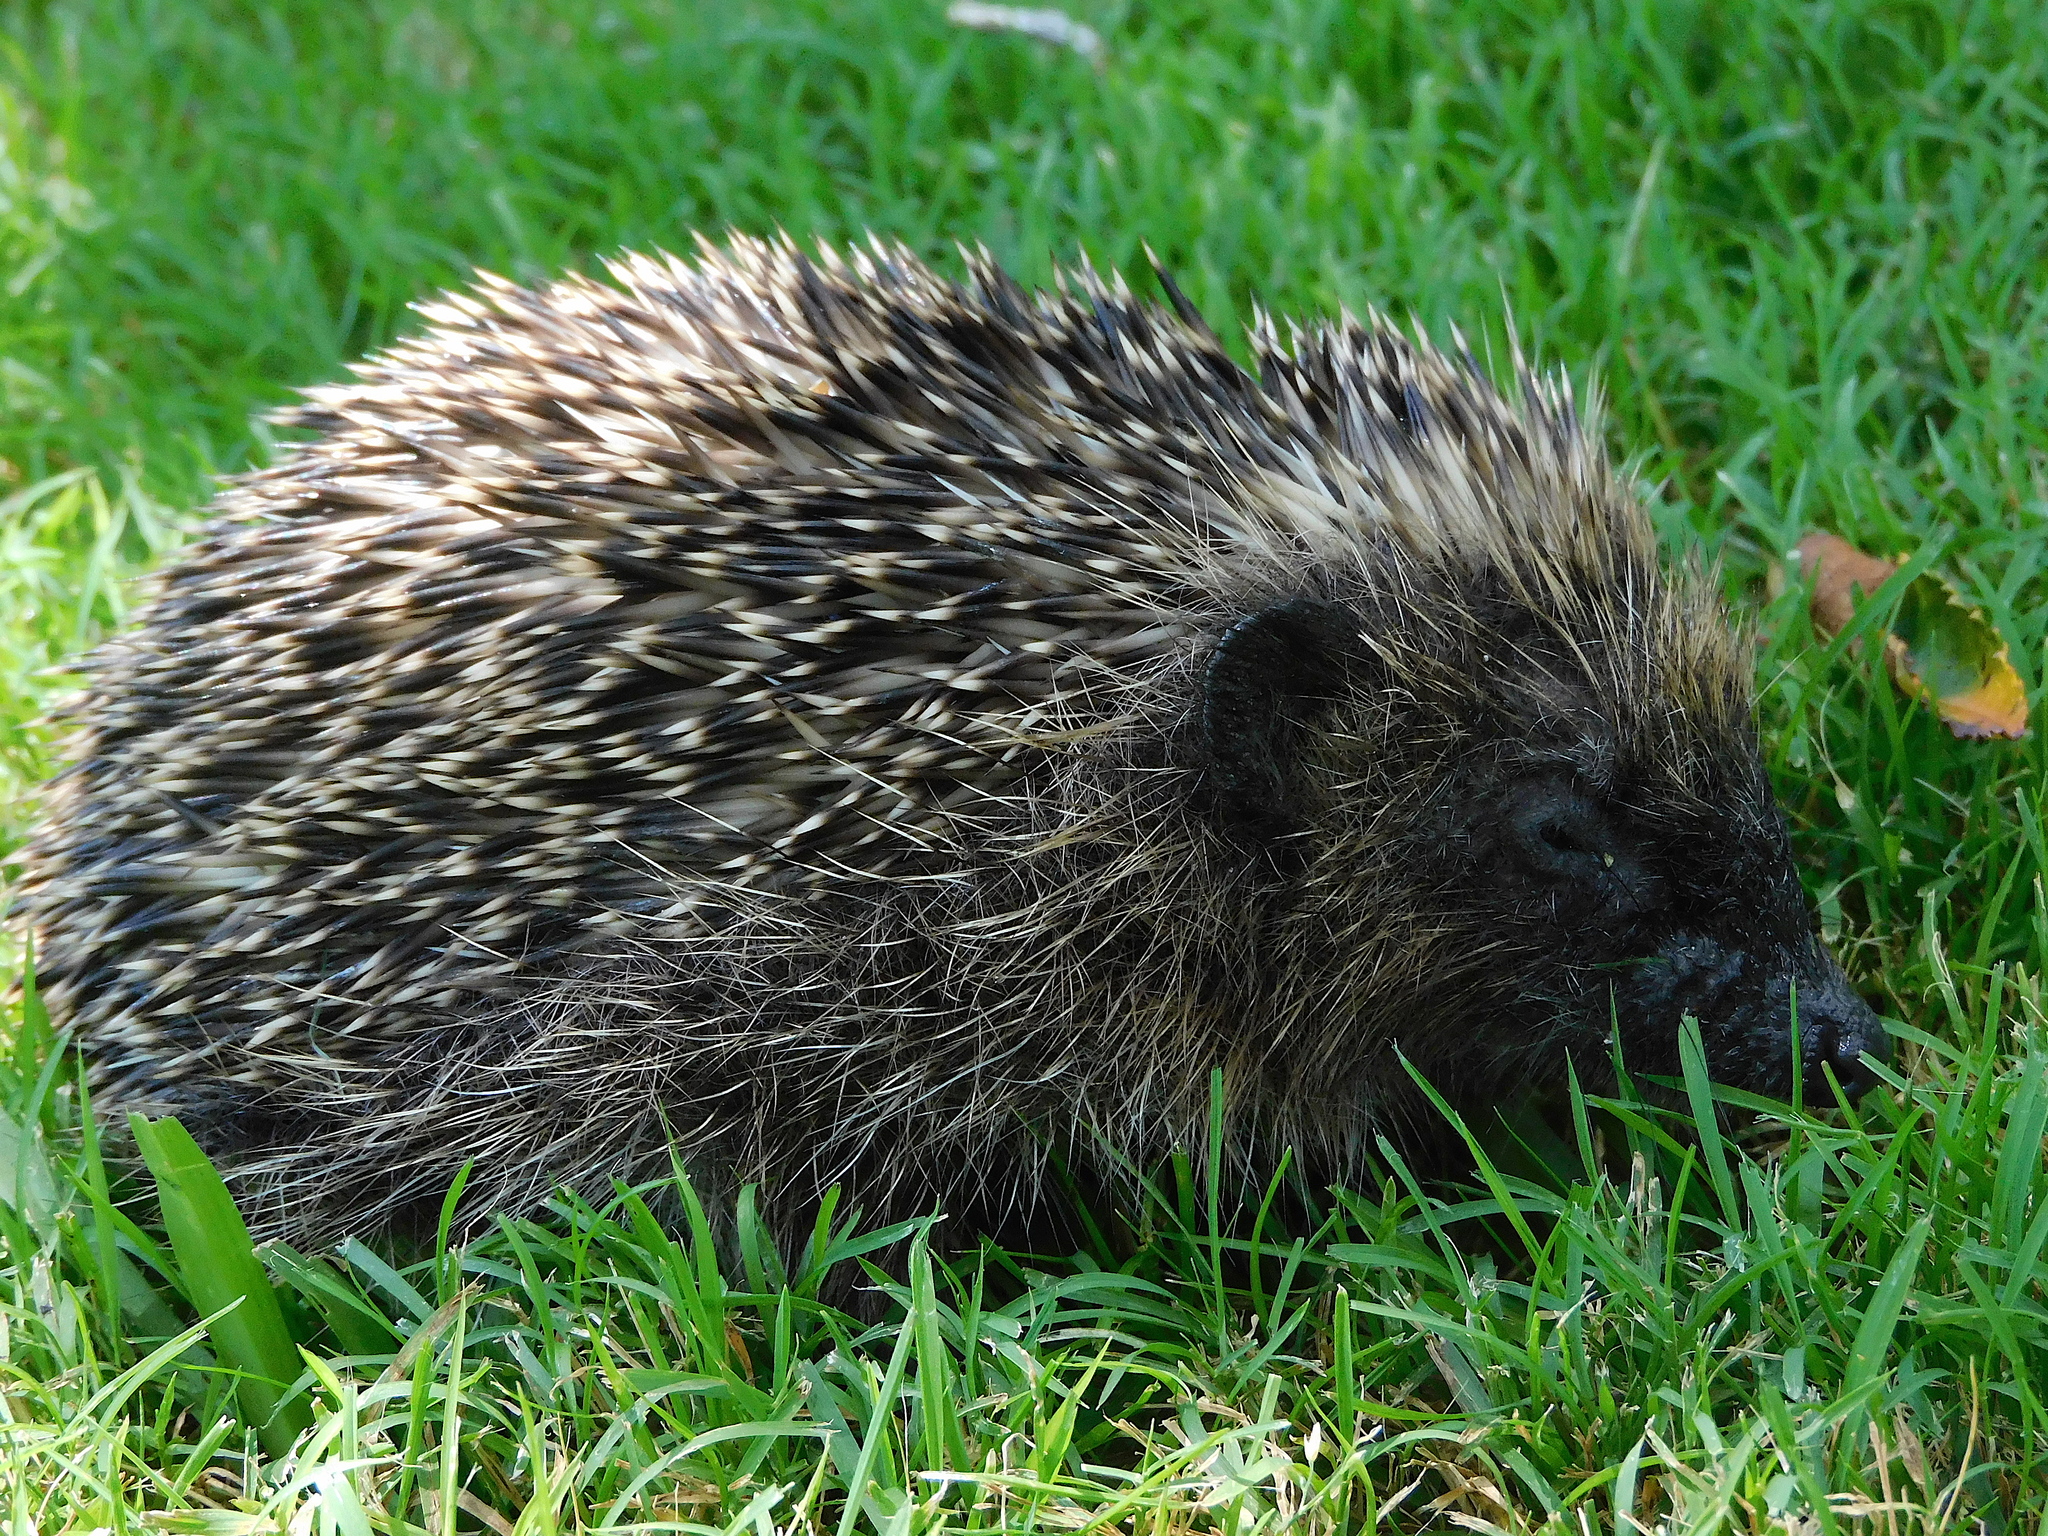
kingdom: Animalia
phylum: Chordata
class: Mammalia
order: Erinaceomorpha
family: Erinaceidae
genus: Erinaceus
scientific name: Erinaceus europaeus
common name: West european hedgehog
